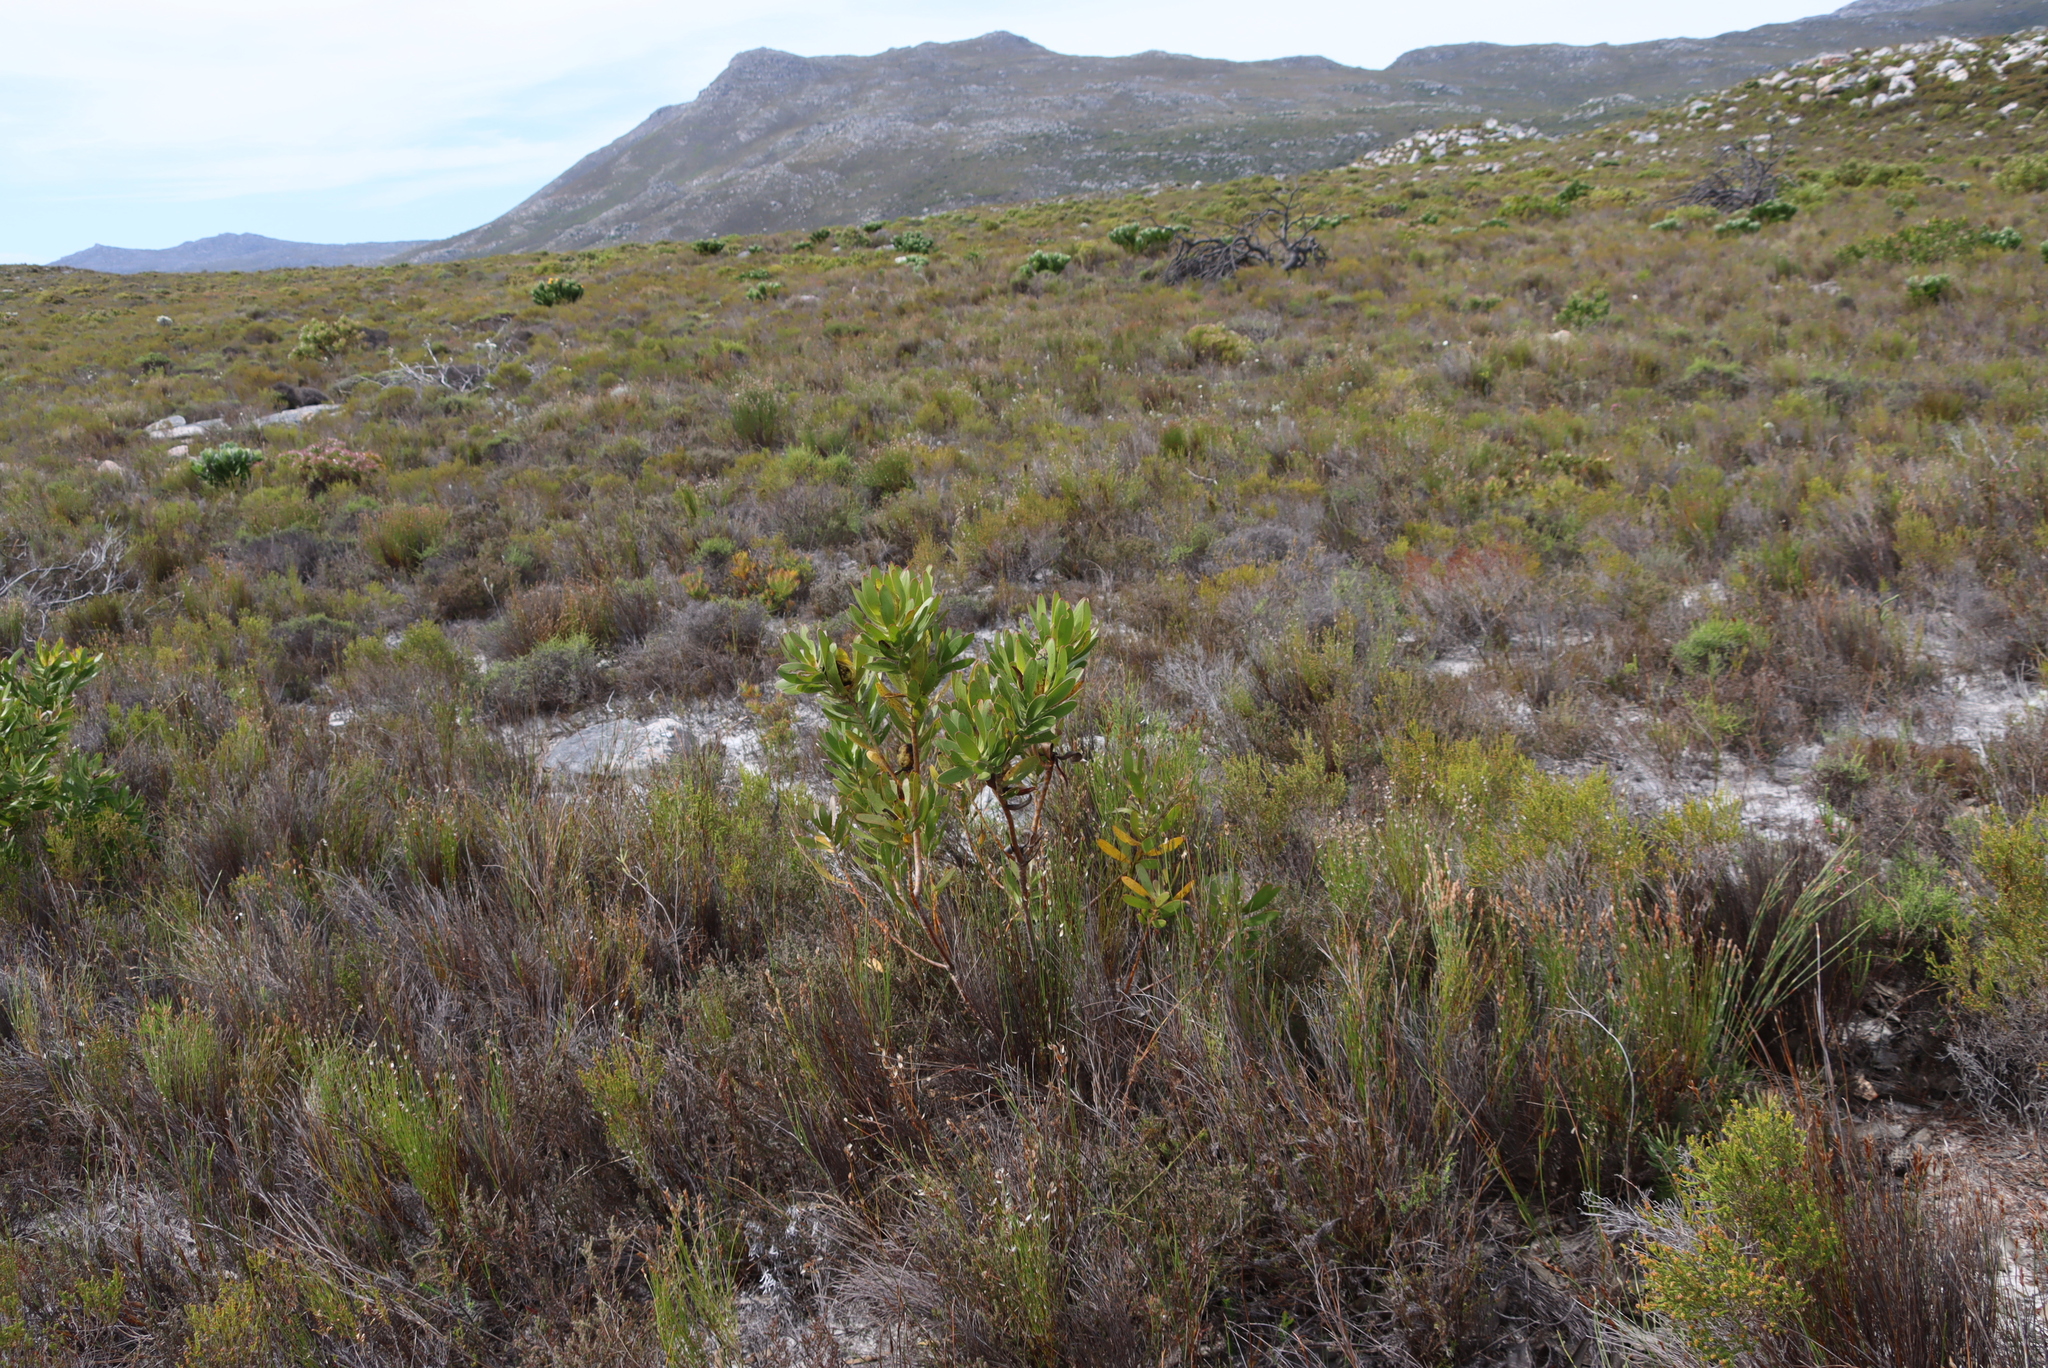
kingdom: Plantae
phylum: Tracheophyta
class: Magnoliopsida
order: Proteales
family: Proteaceae
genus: Leucadendron
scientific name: Leucadendron laureolum
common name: Golden sunshinebush
